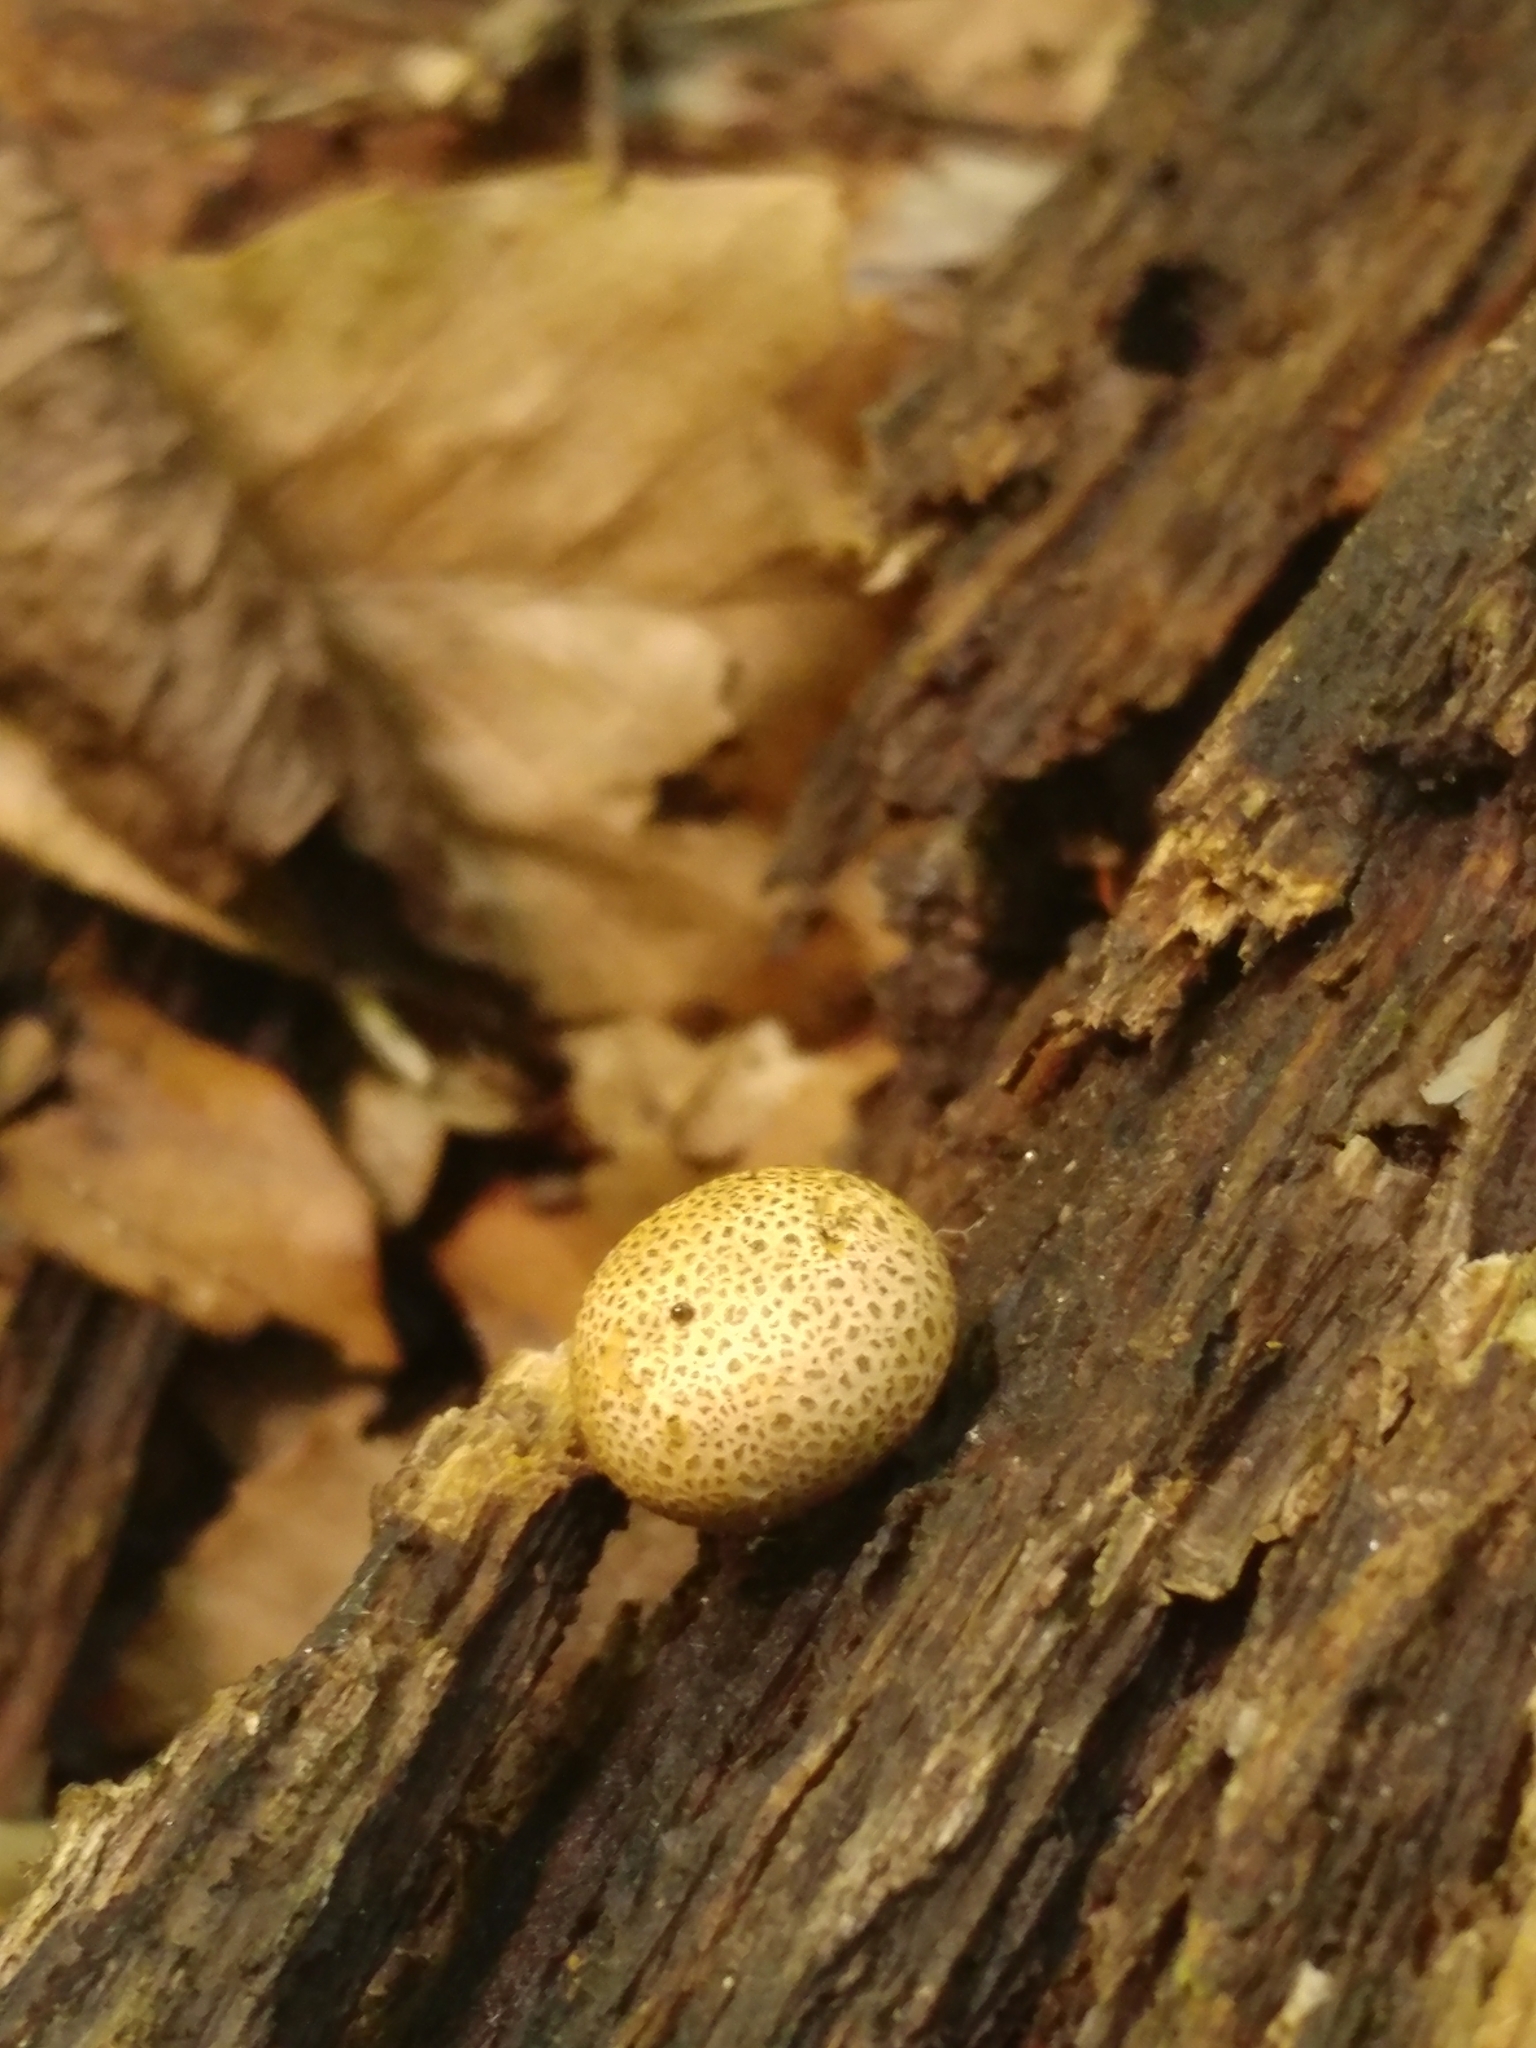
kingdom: Fungi
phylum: Basidiomycota
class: Agaricomycetes
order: Boletales
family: Sclerodermataceae
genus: Scleroderma
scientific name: Scleroderma citrinum
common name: Common earthball
